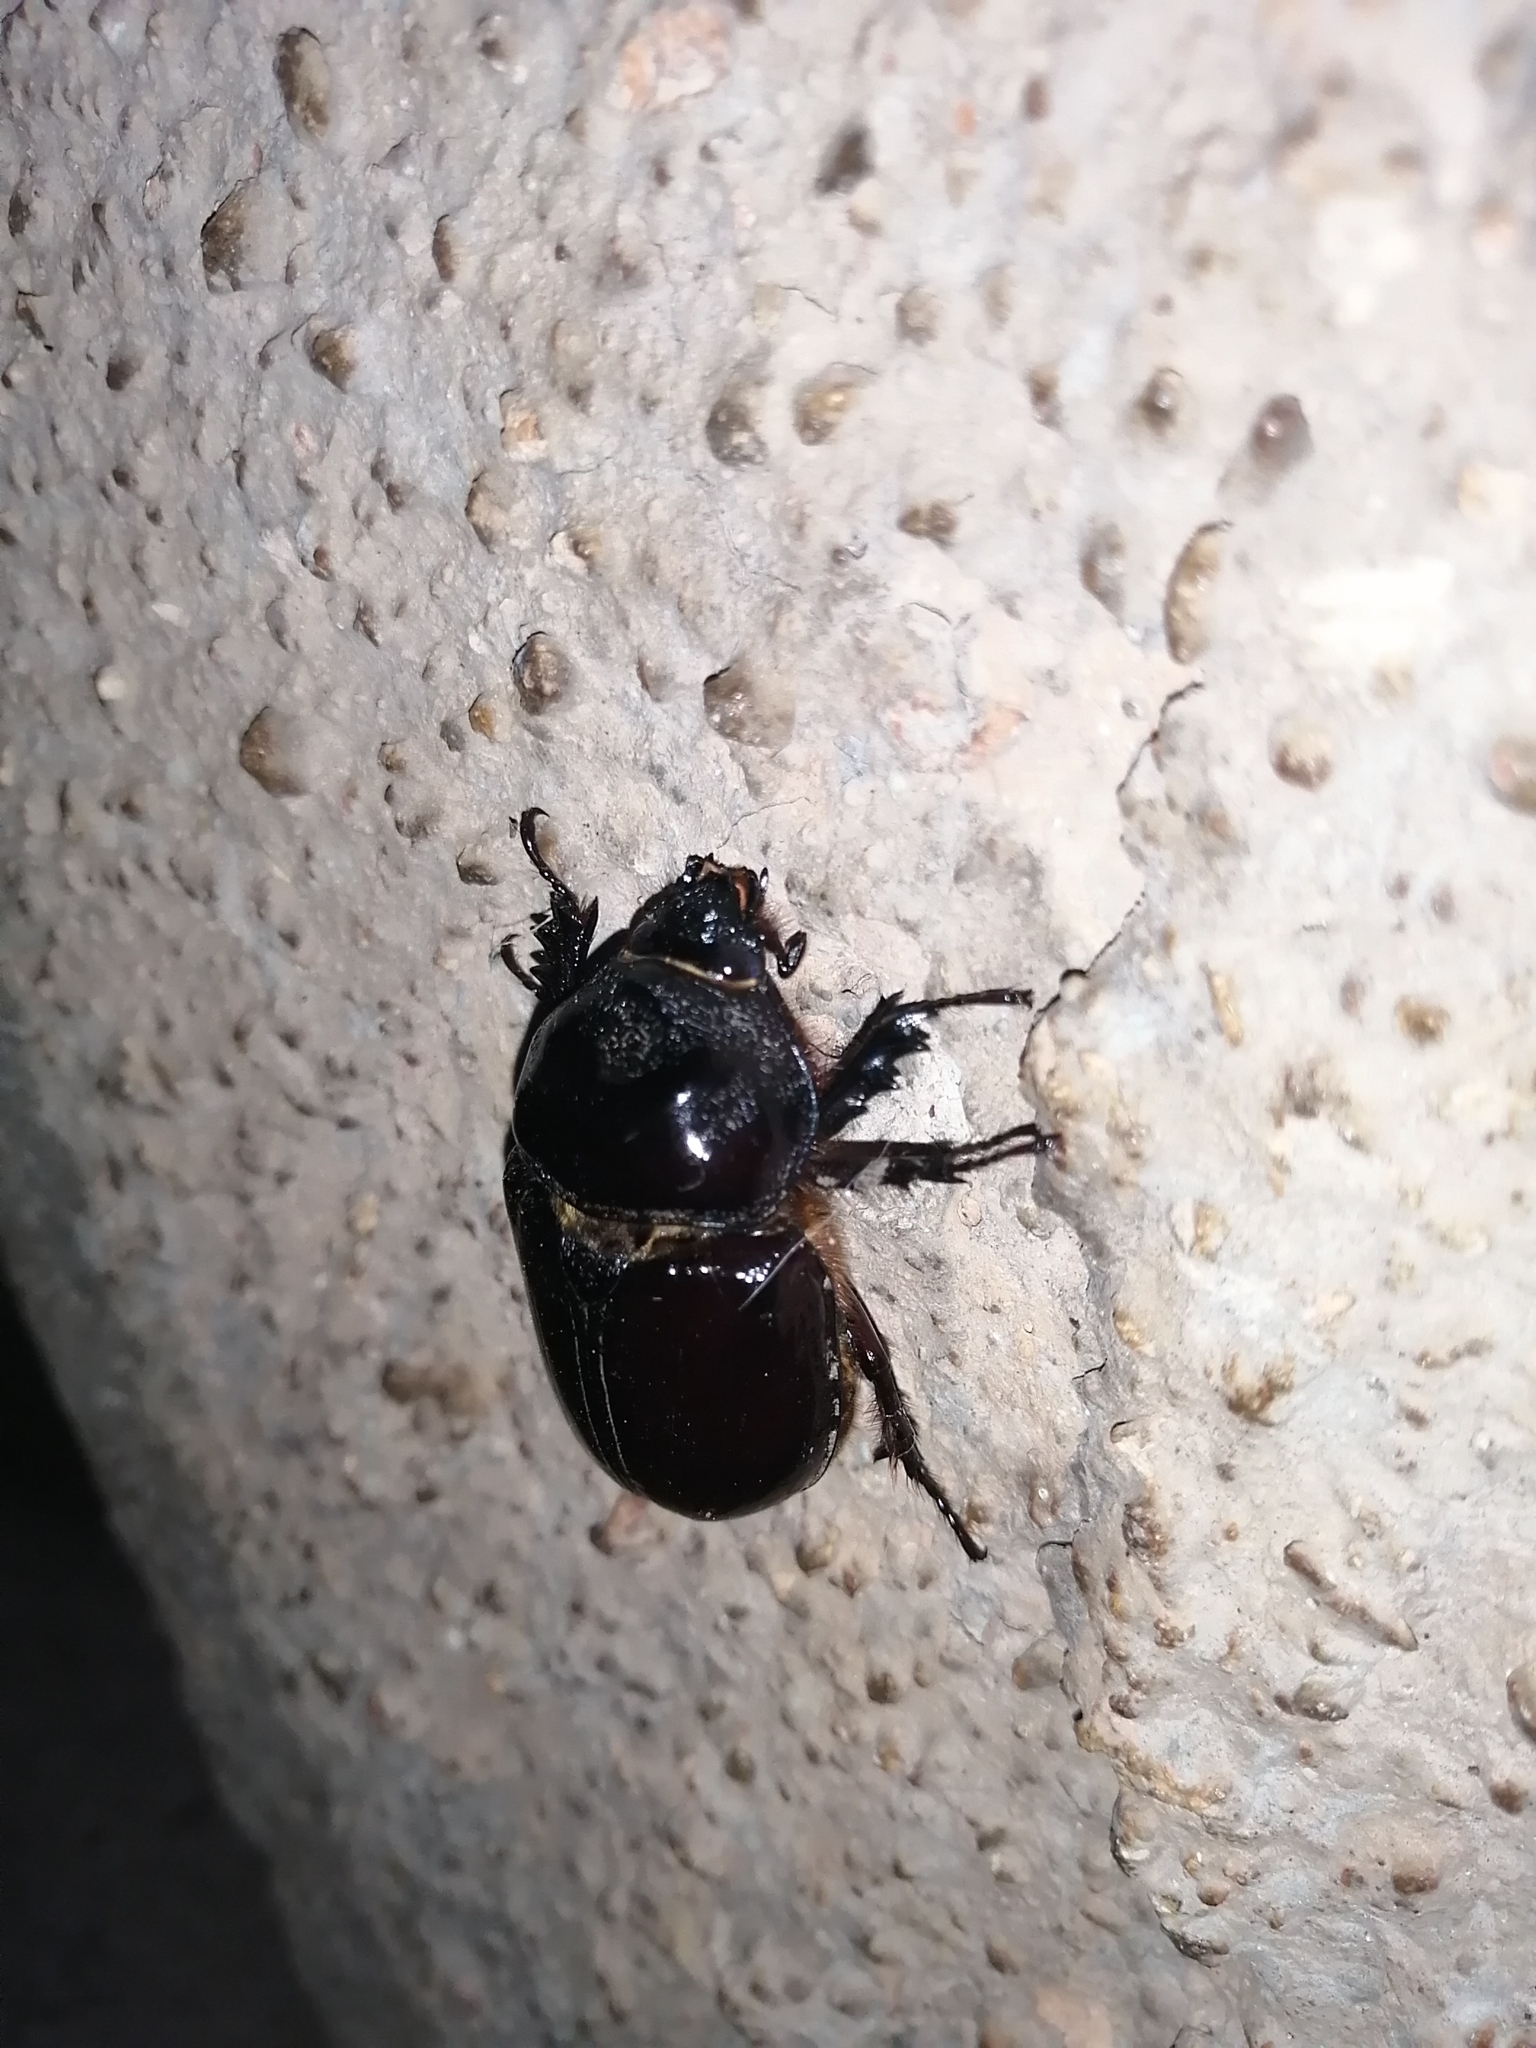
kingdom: Animalia
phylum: Arthropoda
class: Insecta
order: Coleoptera
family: Scarabaeidae
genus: Strategus
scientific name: Strategus aloeus
